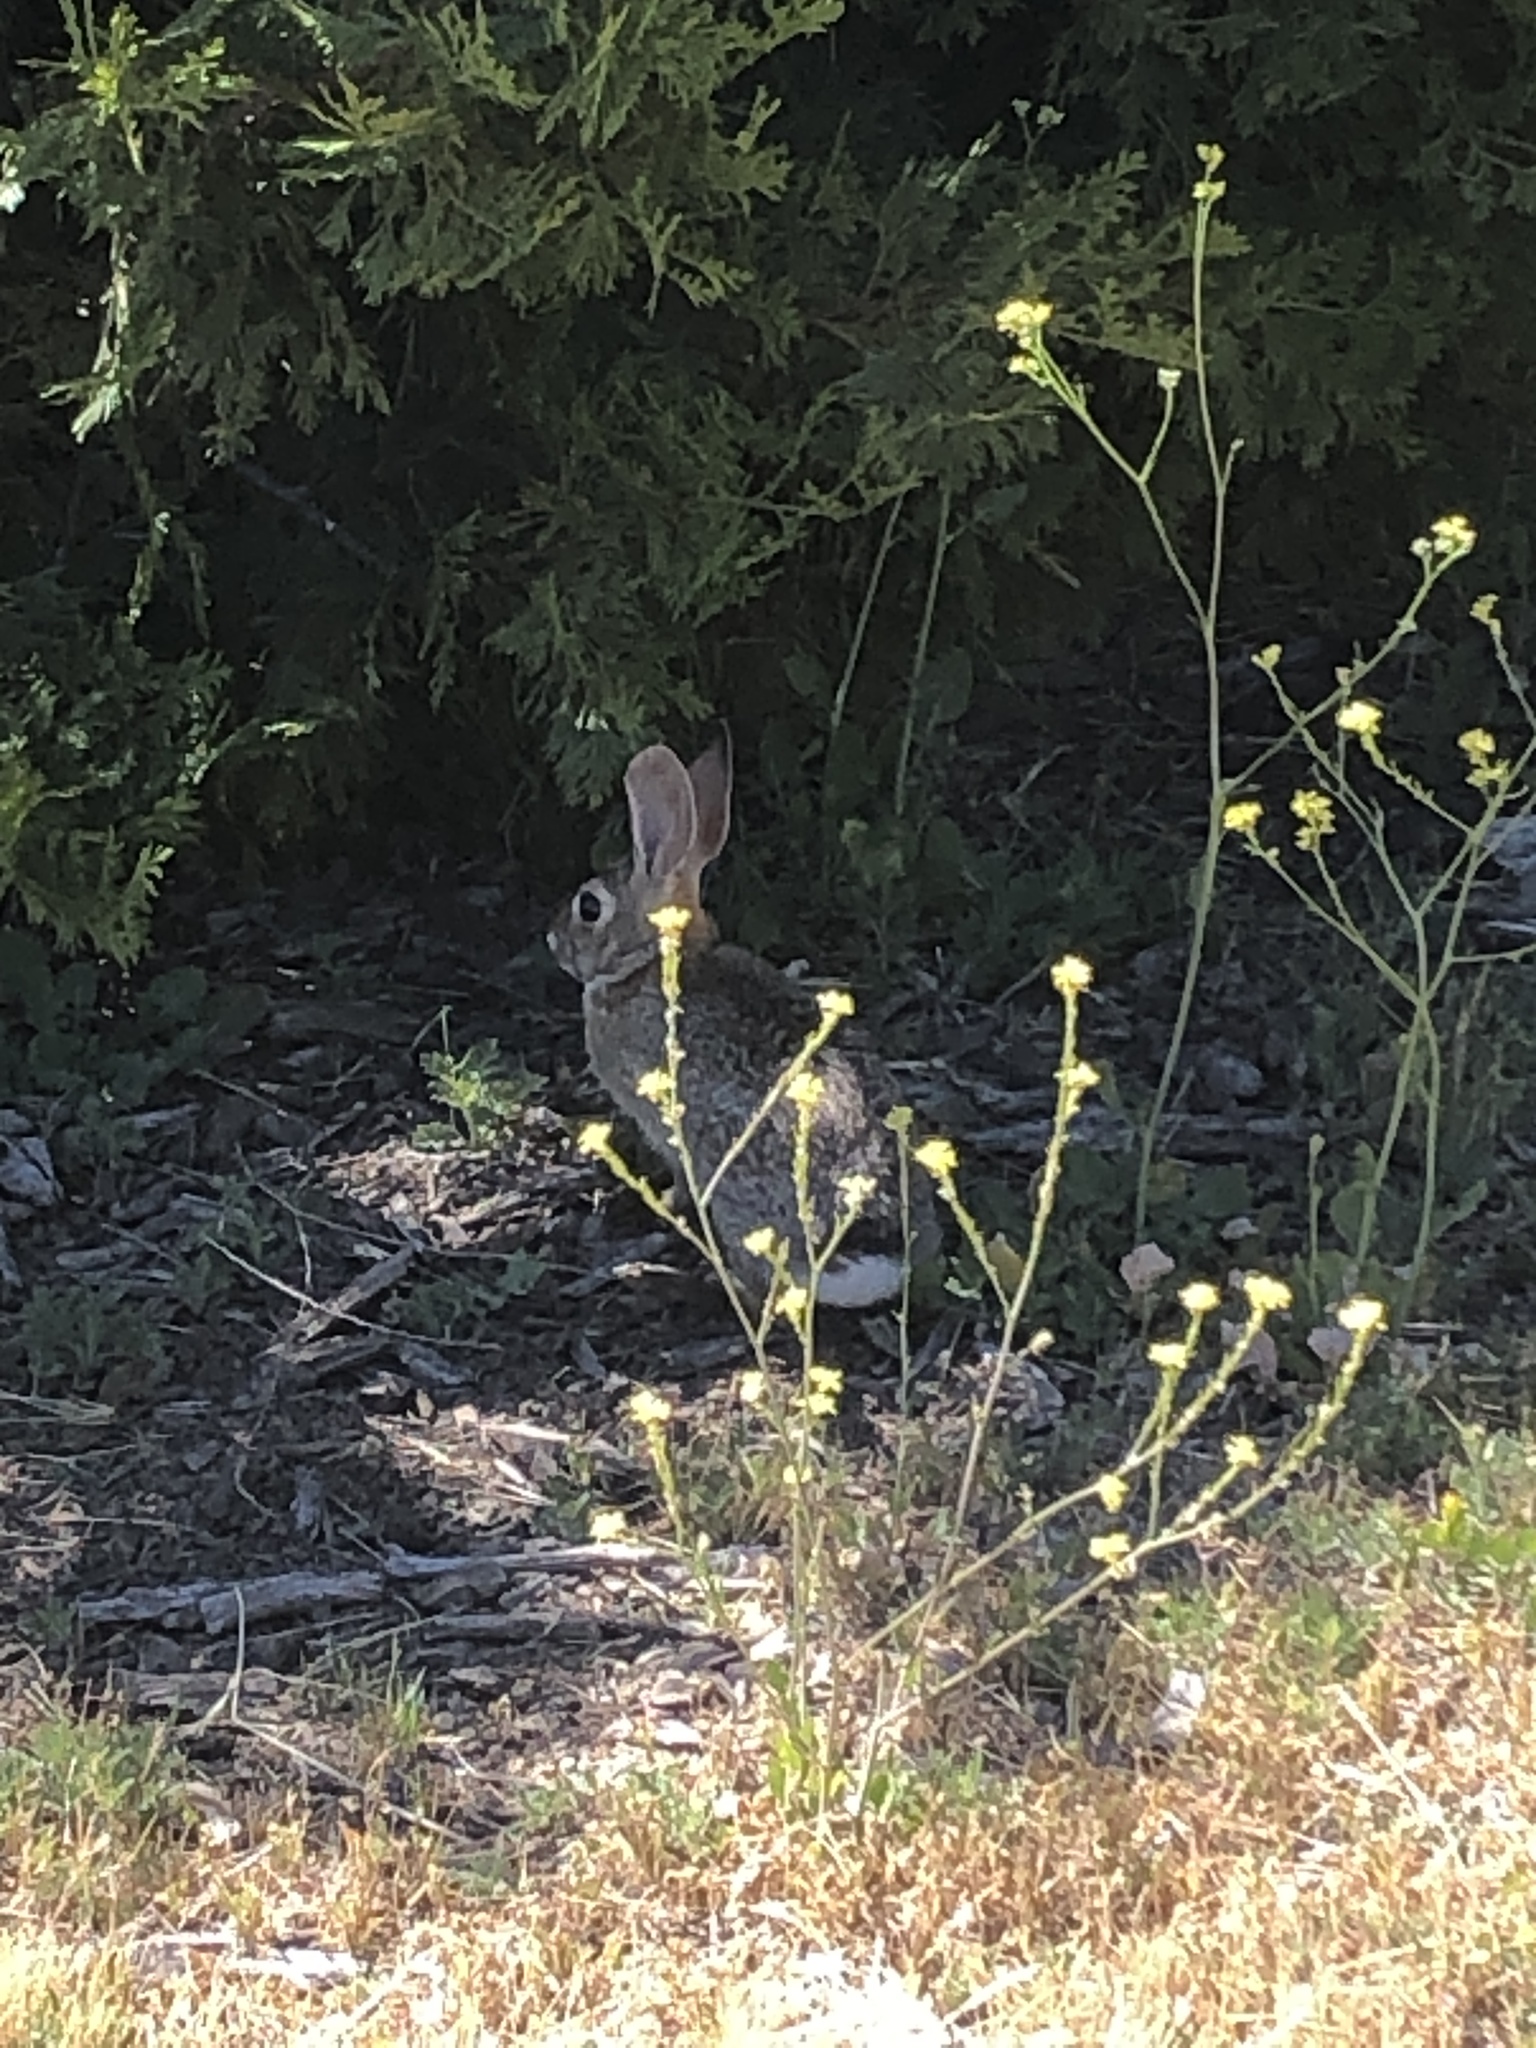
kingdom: Animalia
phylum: Chordata
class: Mammalia
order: Lagomorpha
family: Leporidae
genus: Sylvilagus
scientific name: Sylvilagus audubonii
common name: Desert cottontail
